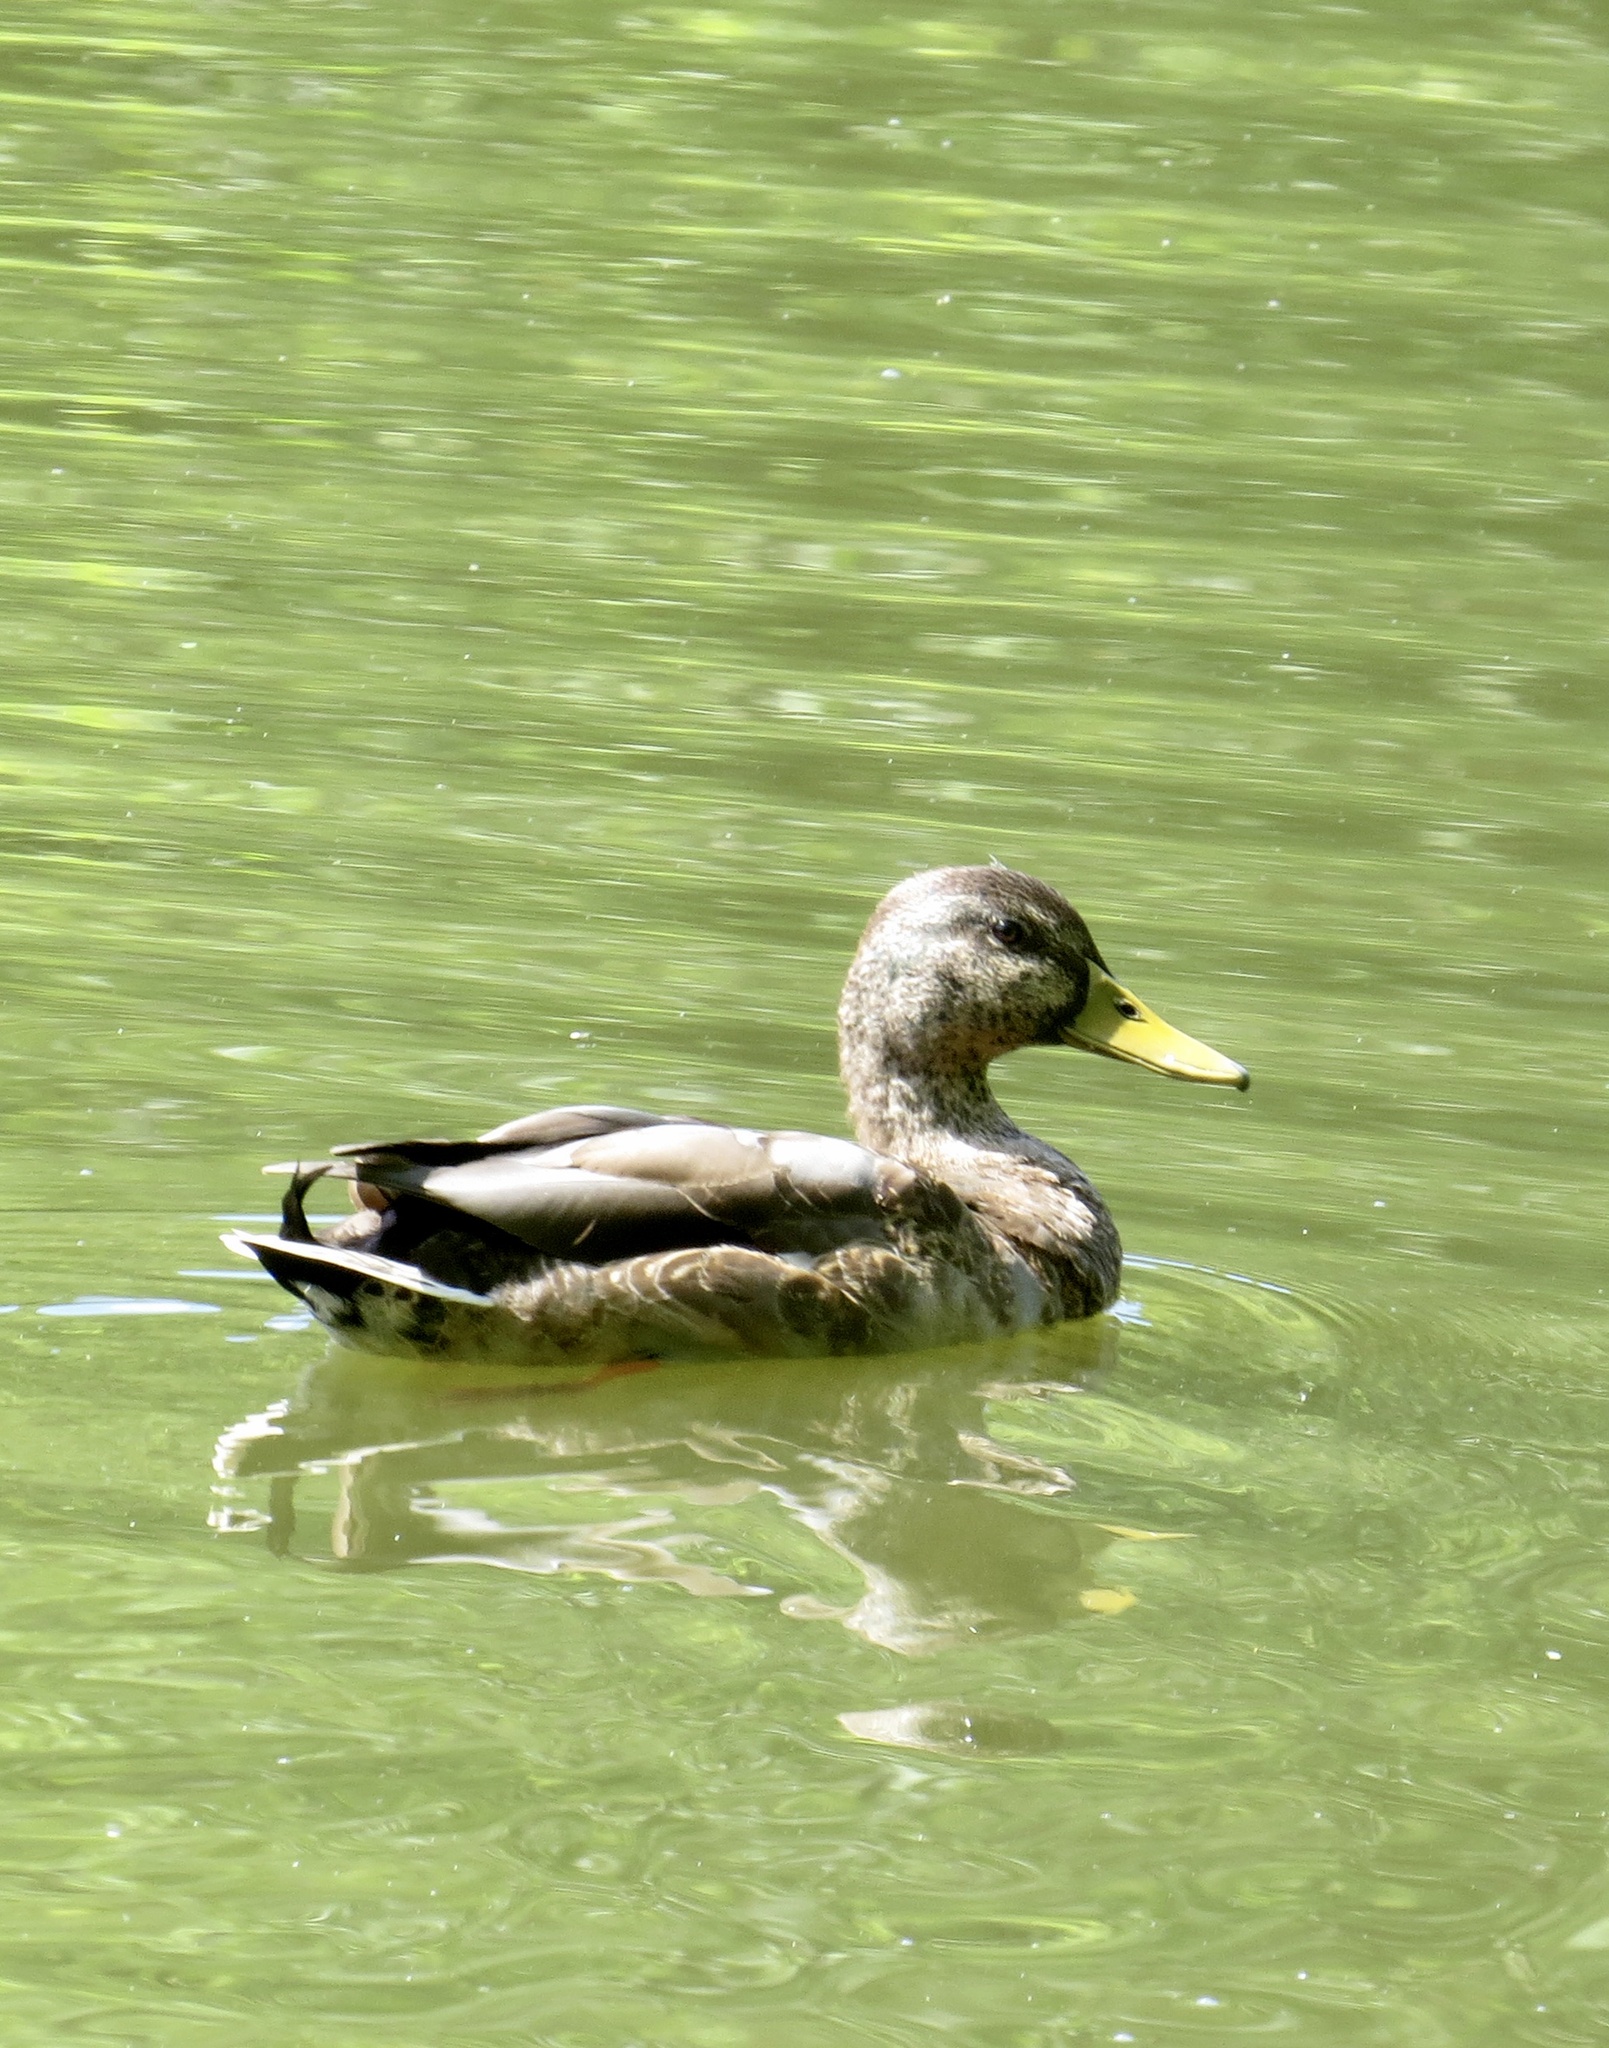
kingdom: Animalia
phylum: Chordata
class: Aves
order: Anseriformes
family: Anatidae
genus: Anas
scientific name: Anas platyrhynchos
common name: Mallard
